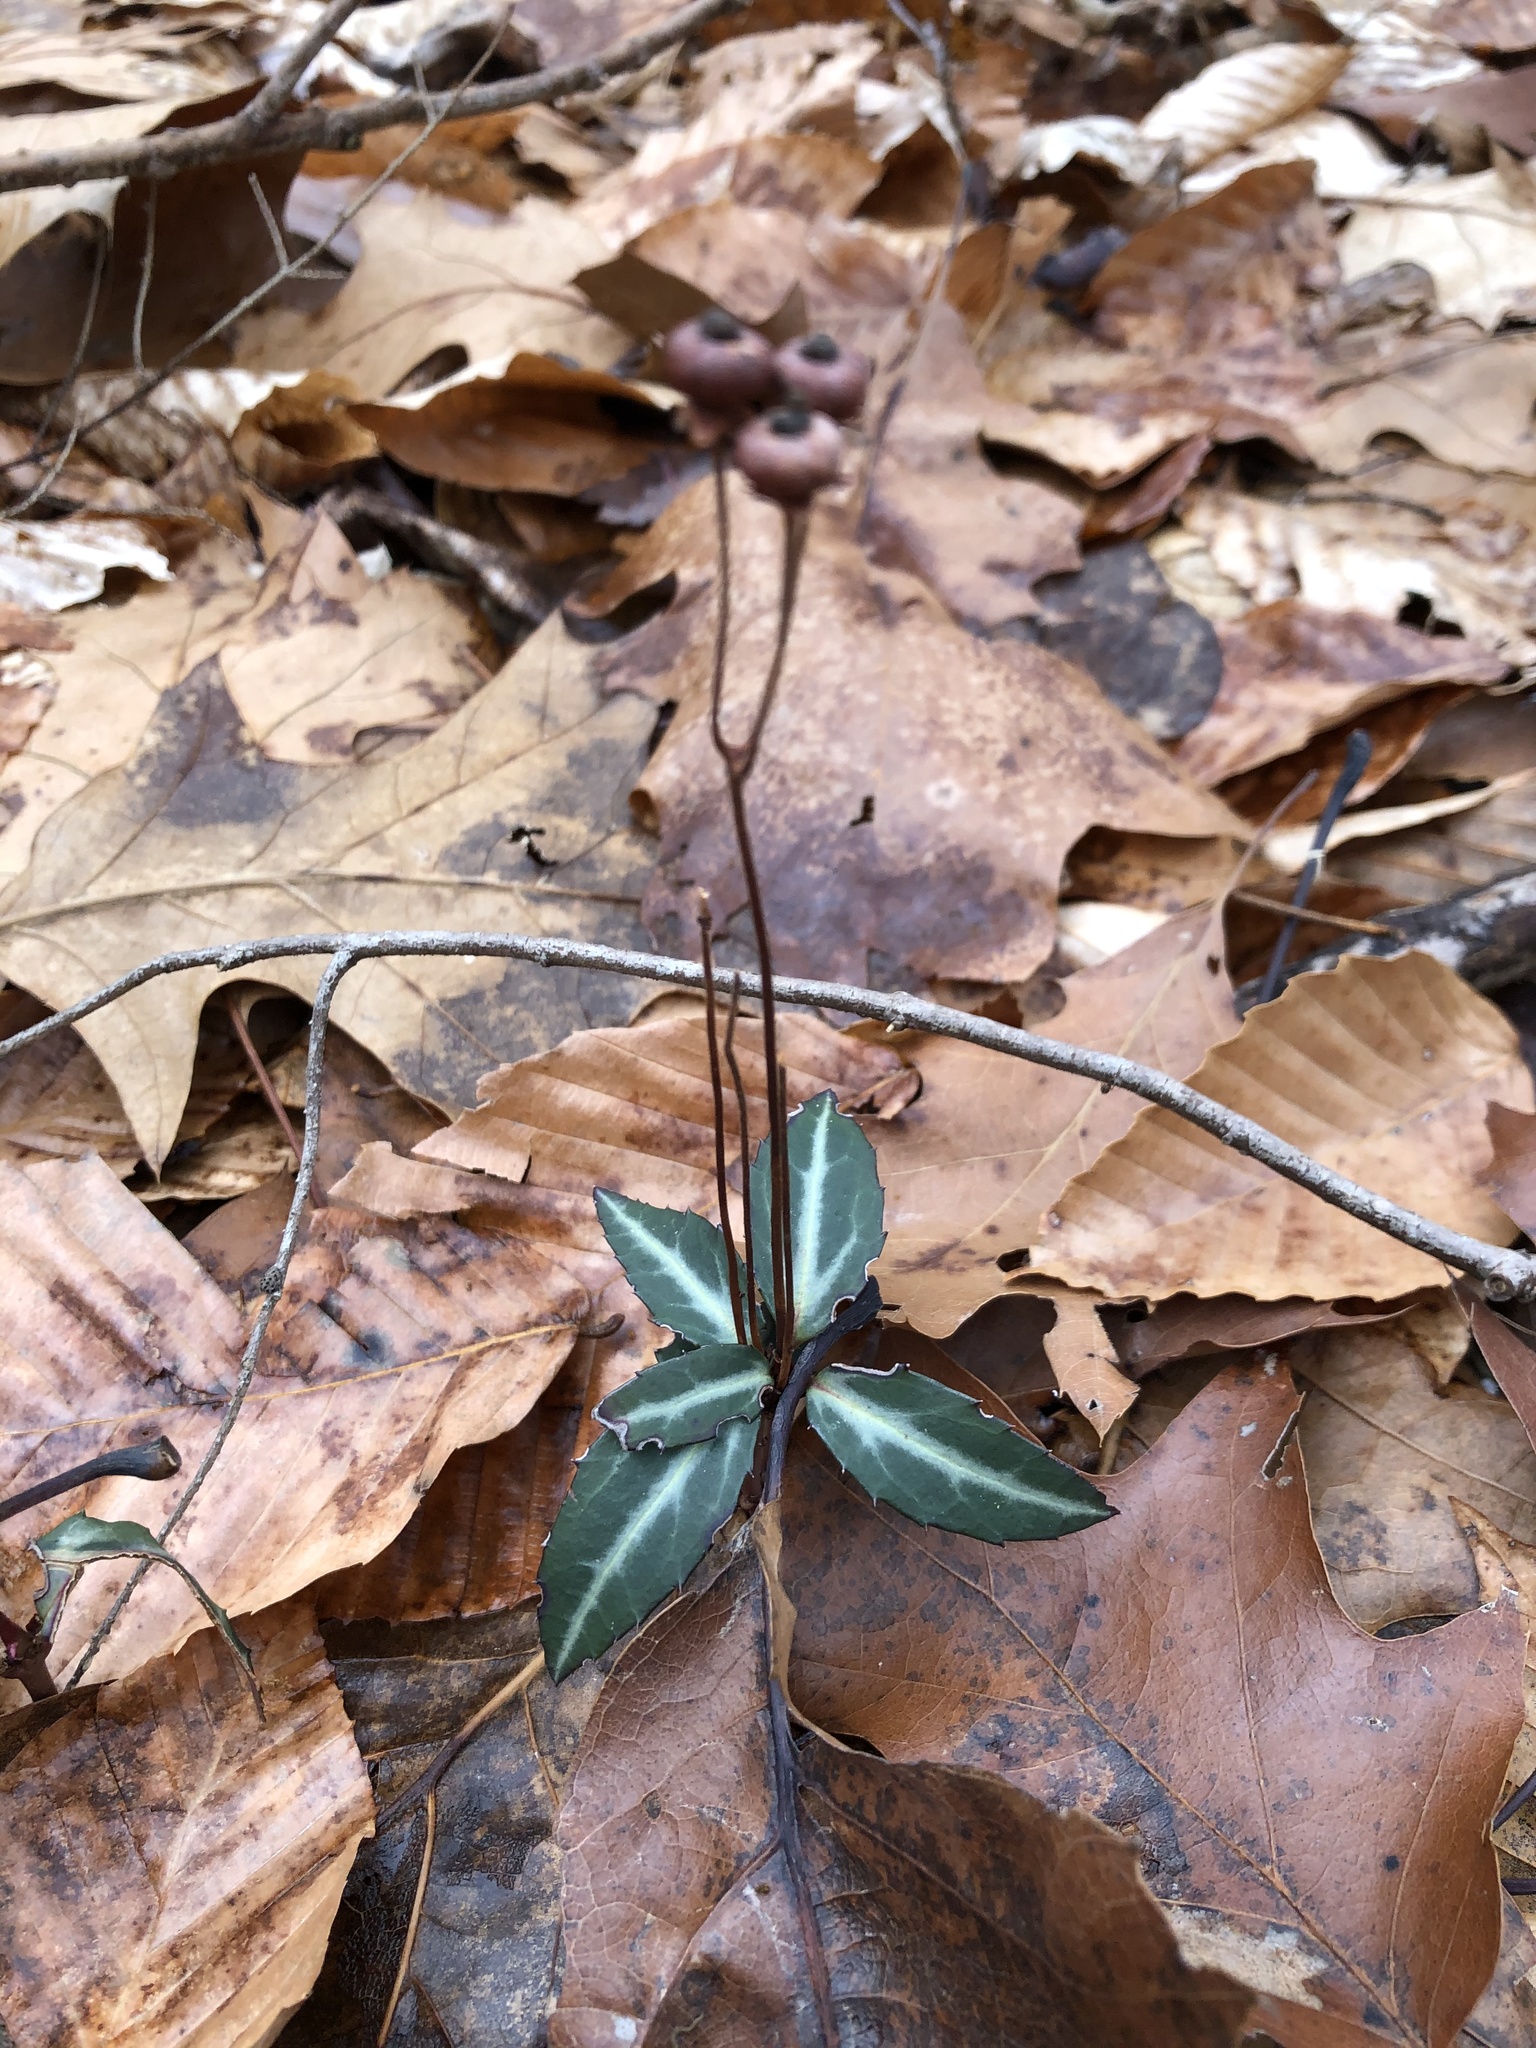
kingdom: Plantae
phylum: Tracheophyta
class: Magnoliopsida
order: Ericales
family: Ericaceae
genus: Chimaphila
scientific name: Chimaphila maculata
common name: Spotted pipsissewa
